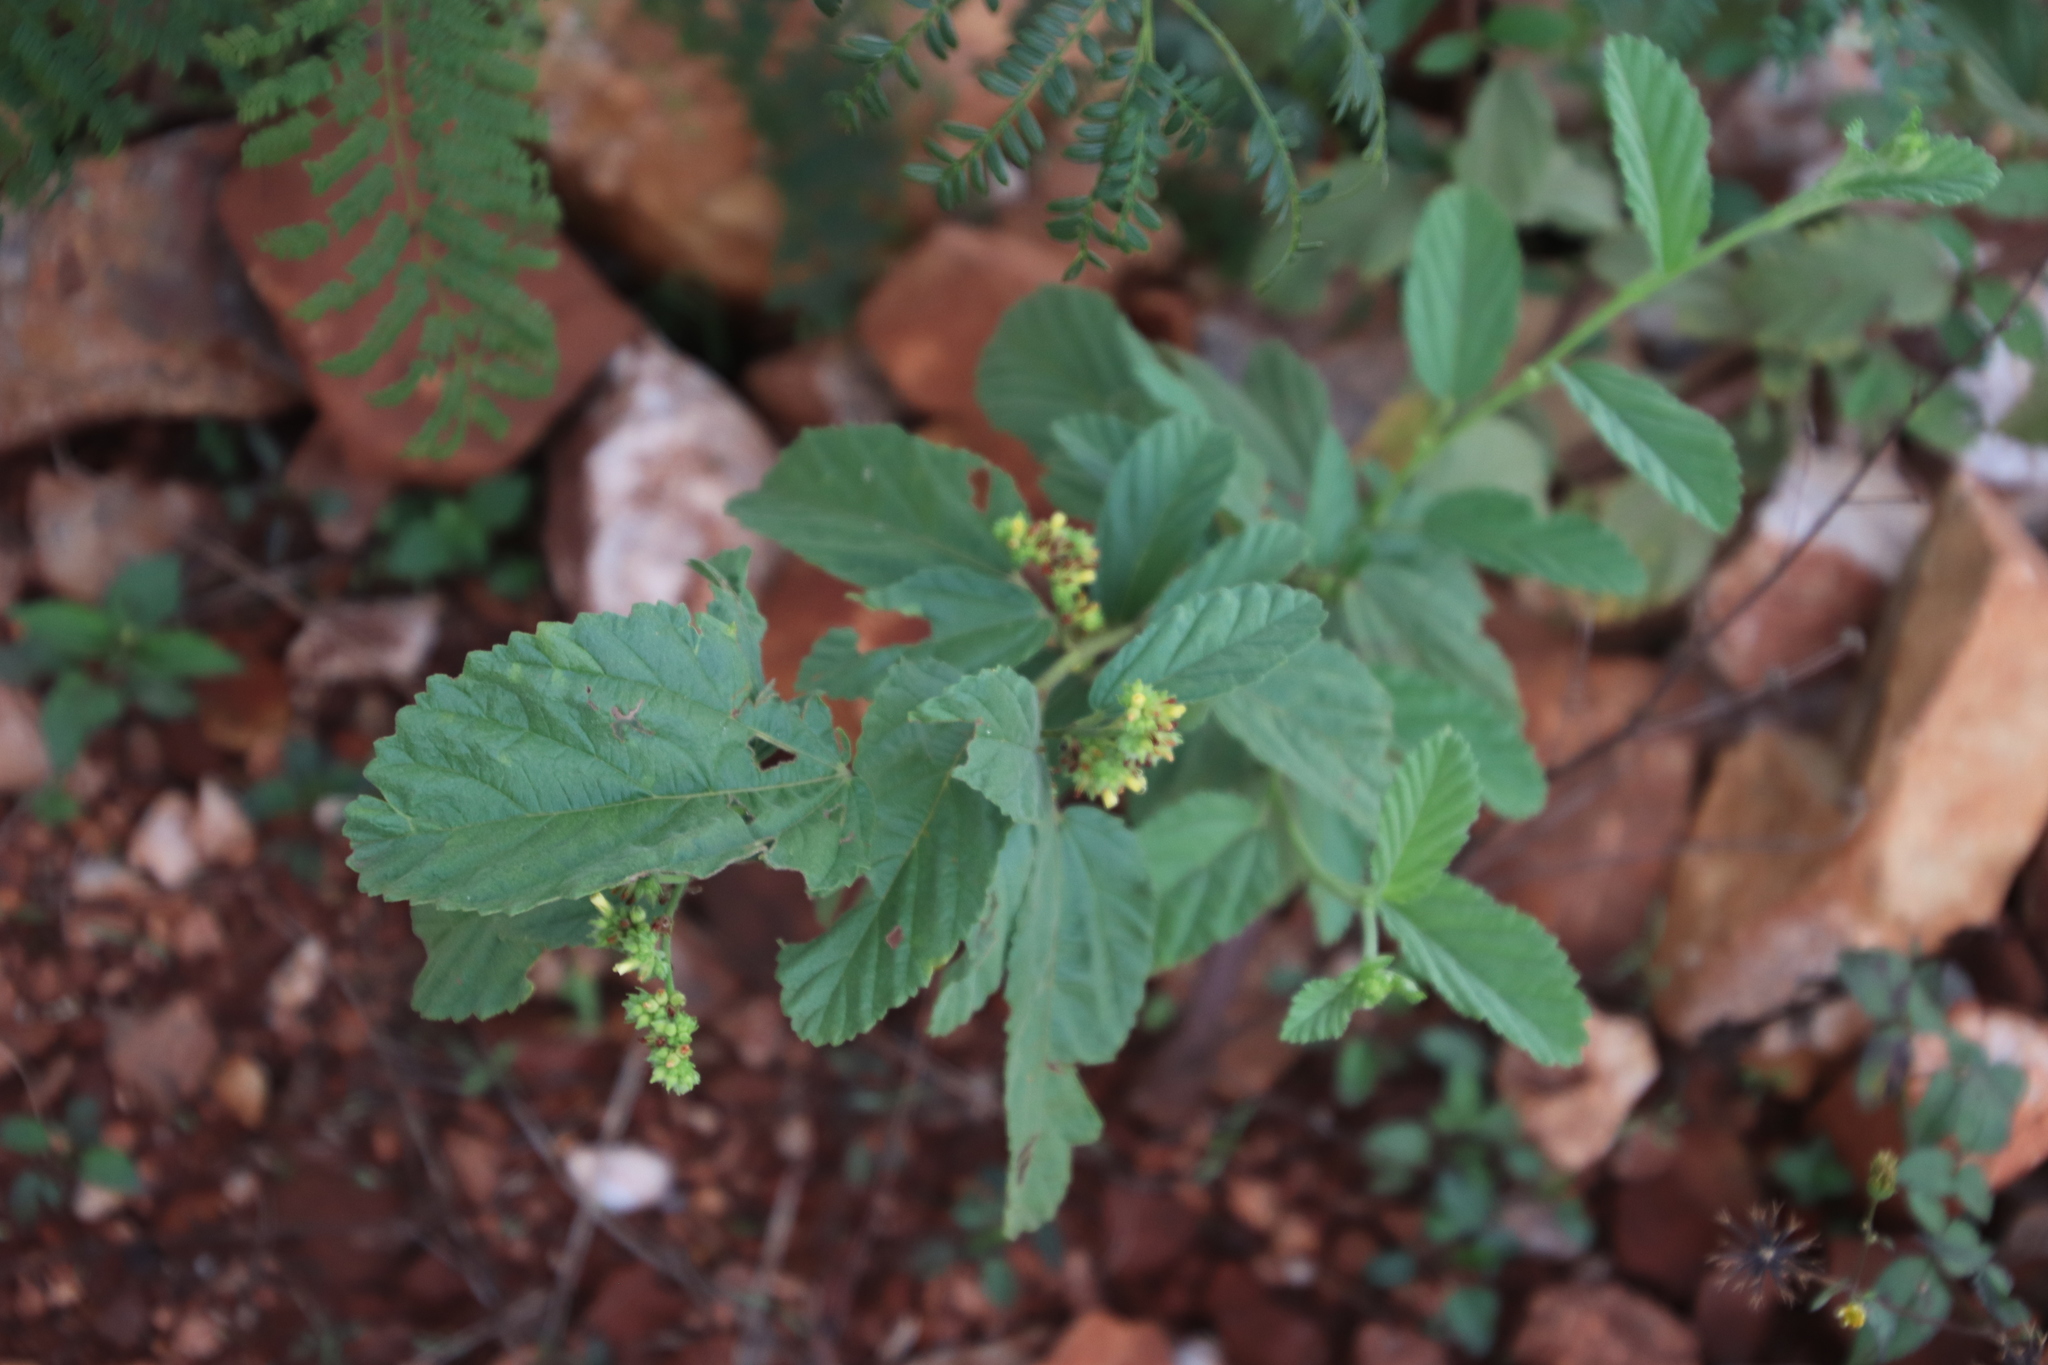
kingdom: Plantae
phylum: Tracheophyta
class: Magnoliopsida
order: Malvales
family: Malvaceae
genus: Waltheria
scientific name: Waltheria indica
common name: Leather-coat
